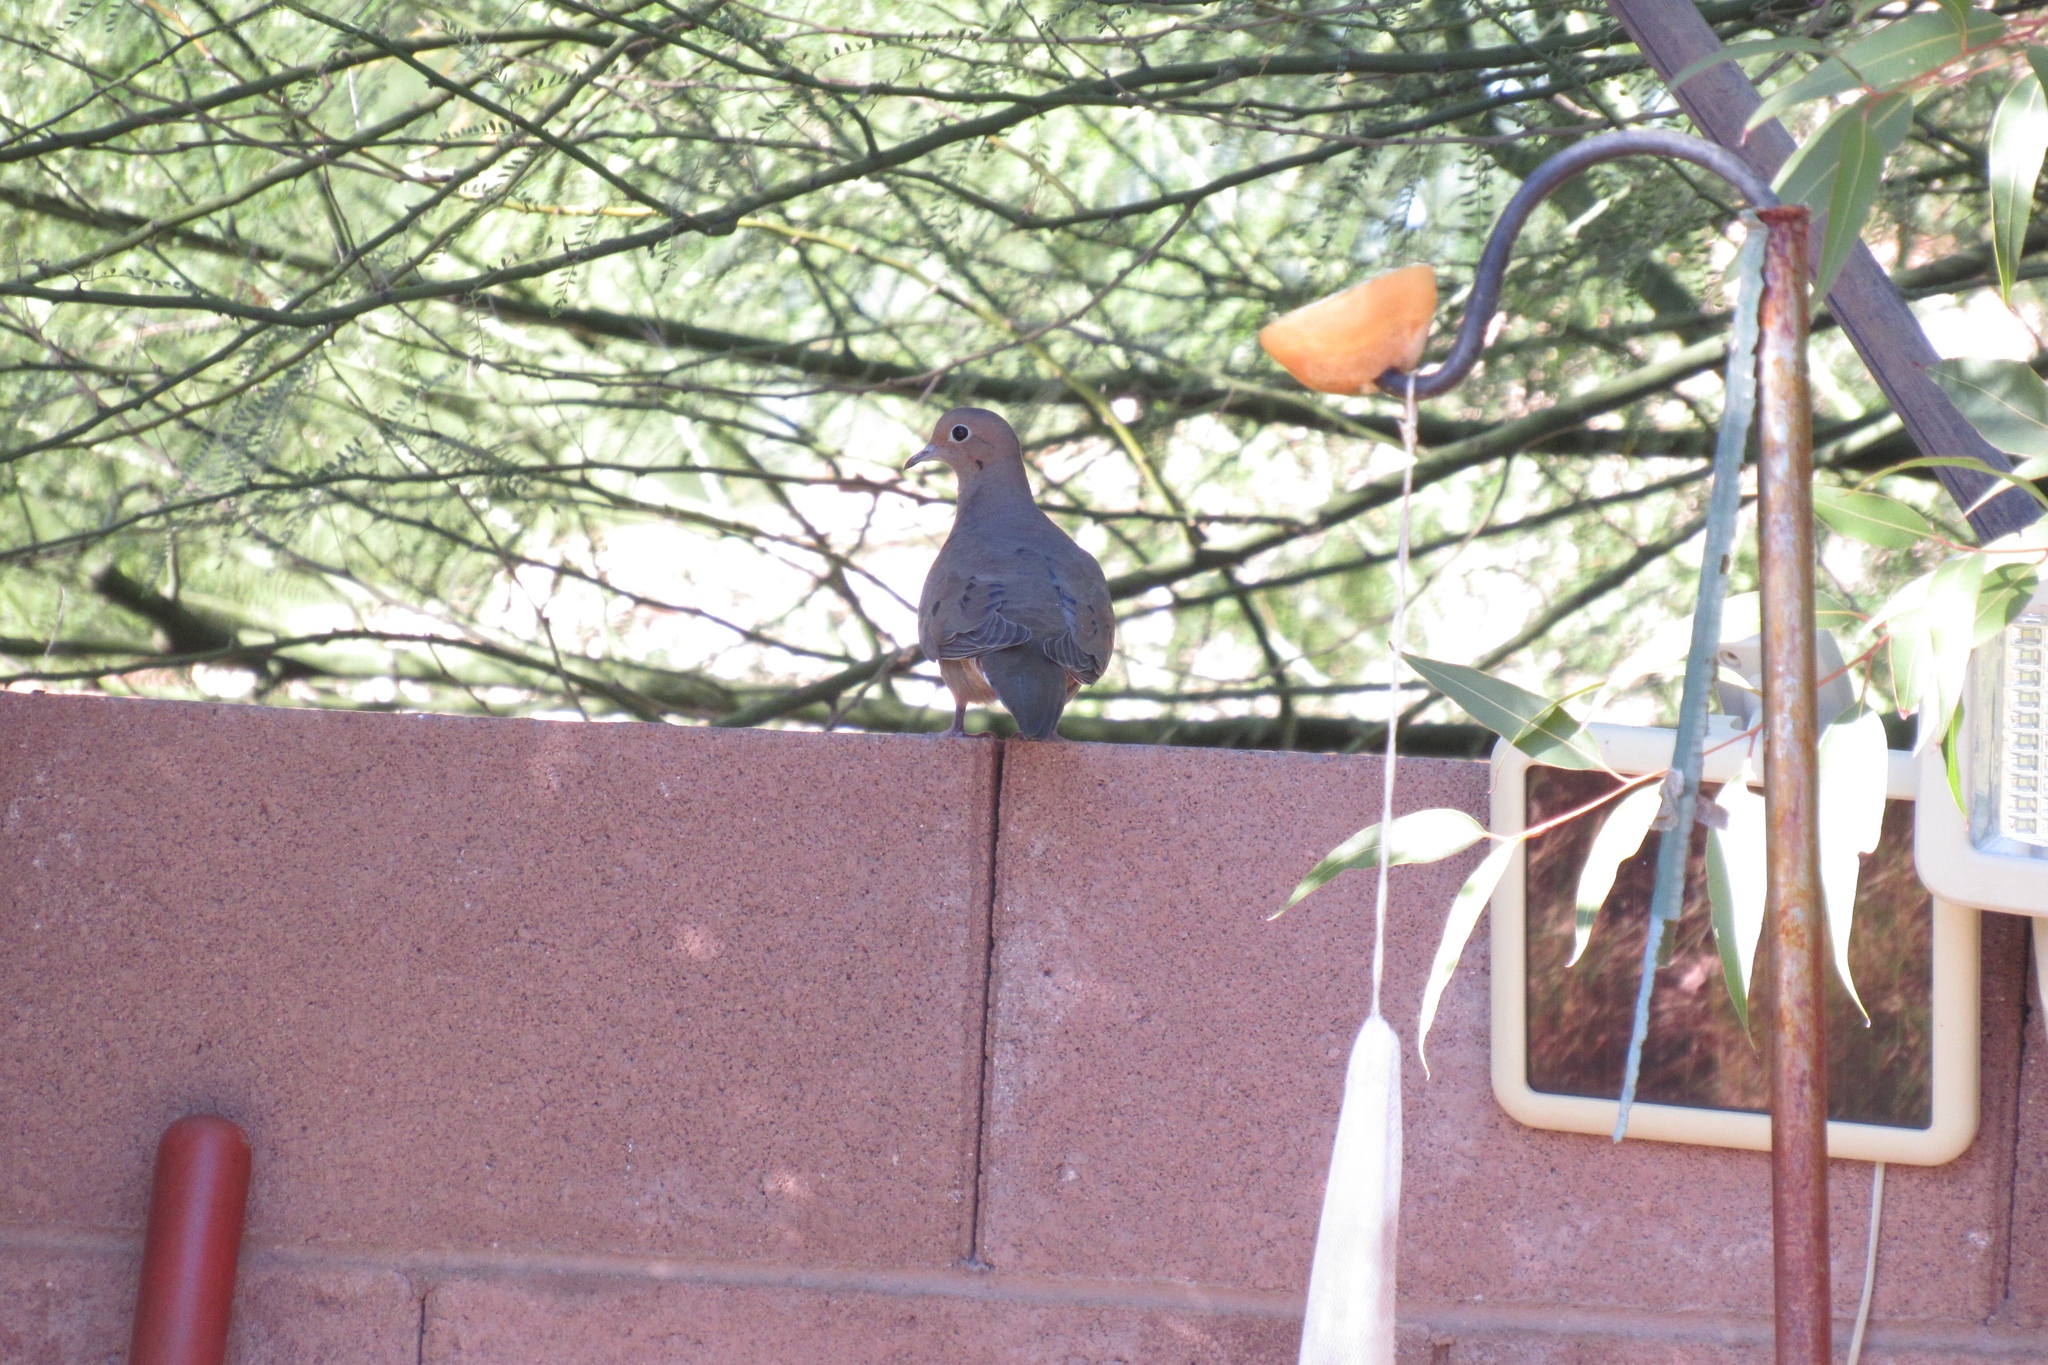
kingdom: Animalia
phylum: Chordata
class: Aves
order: Columbiformes
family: Columbidae
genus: Zenaida
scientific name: Zenaida macroura
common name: Mourning dove
